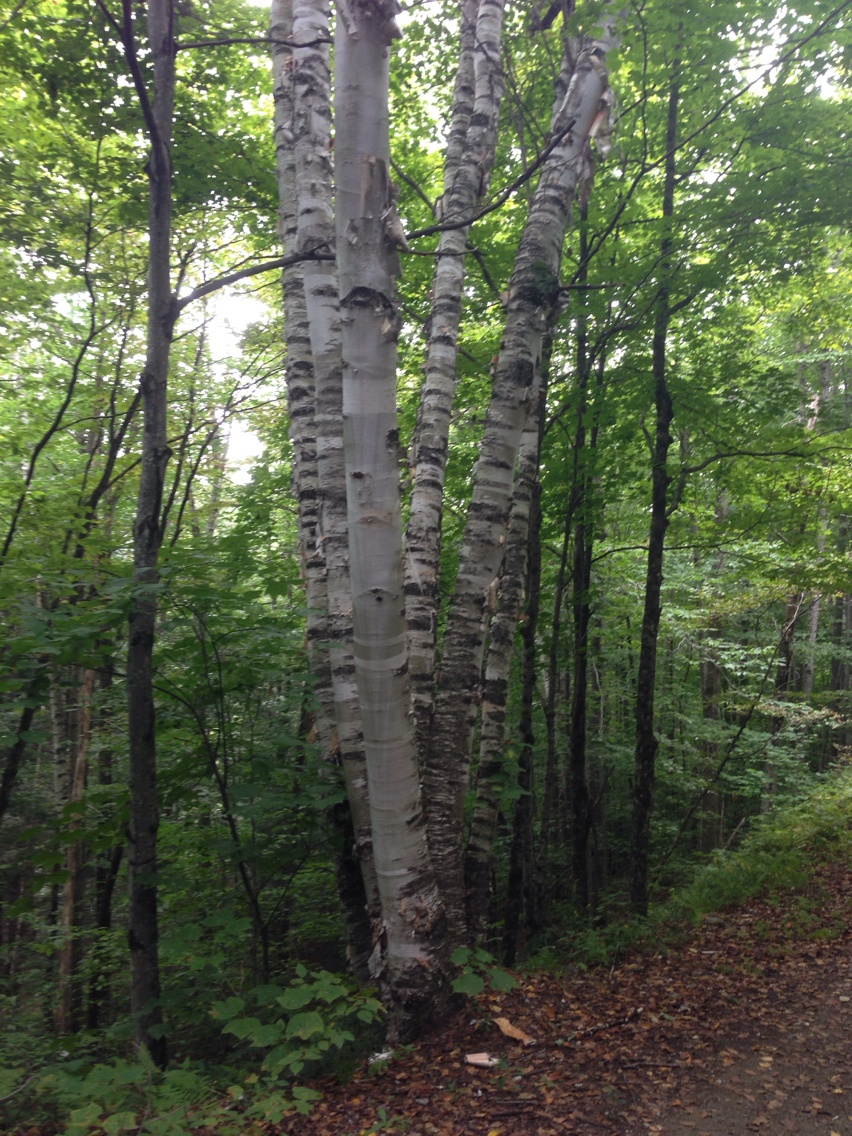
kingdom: Plantae
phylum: Tracheophyta
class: Magnoliopsida
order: Fagales
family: Betulaceae
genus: Betula
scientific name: Betula papyrifera
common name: Paper birch
